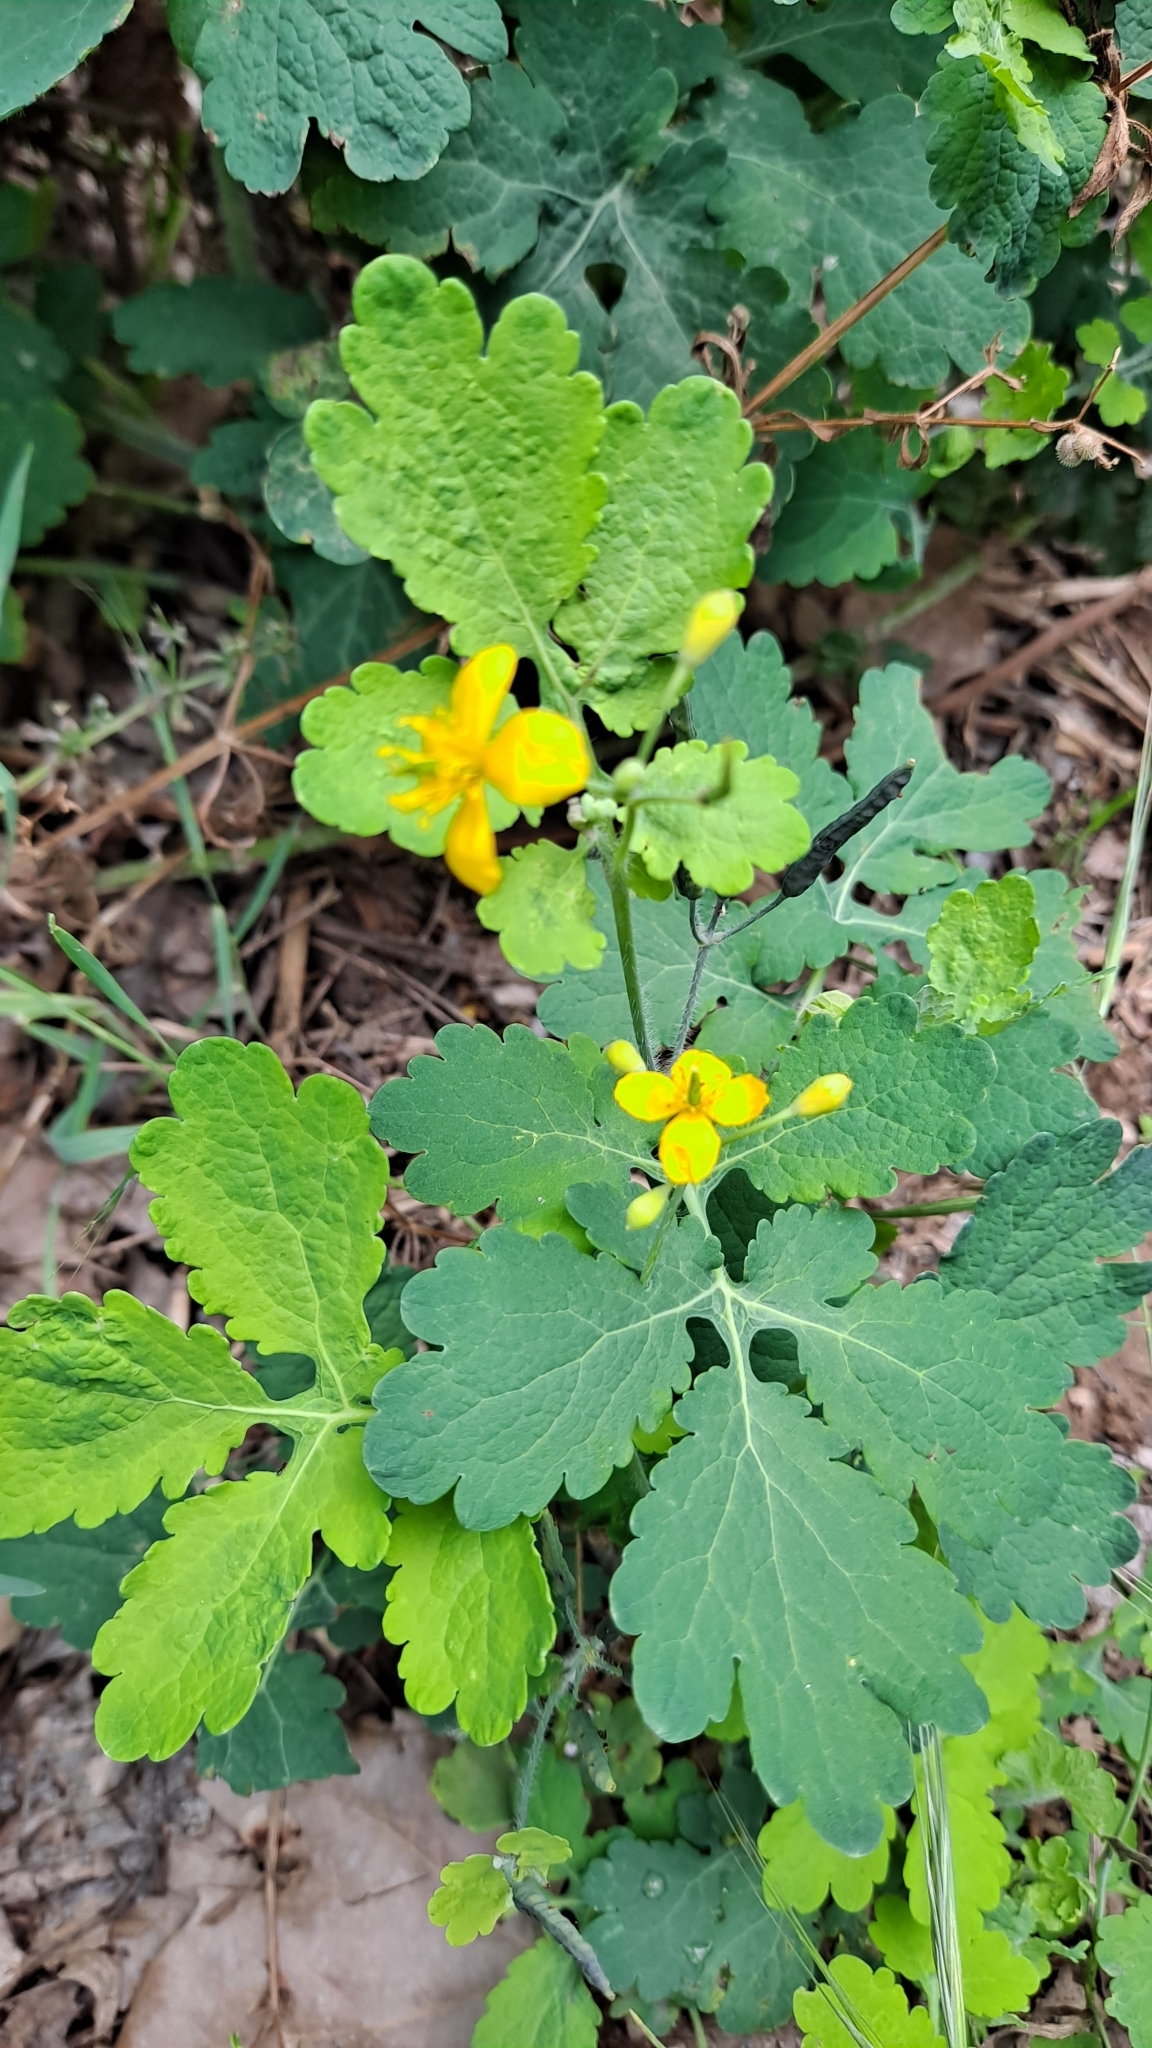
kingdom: Plantae
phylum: Tracheophyta
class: Magnoliopsida
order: Ranunculales
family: Papaveraceae
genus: Chelidonium
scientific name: Chelidonium majus
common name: Greater celandine
